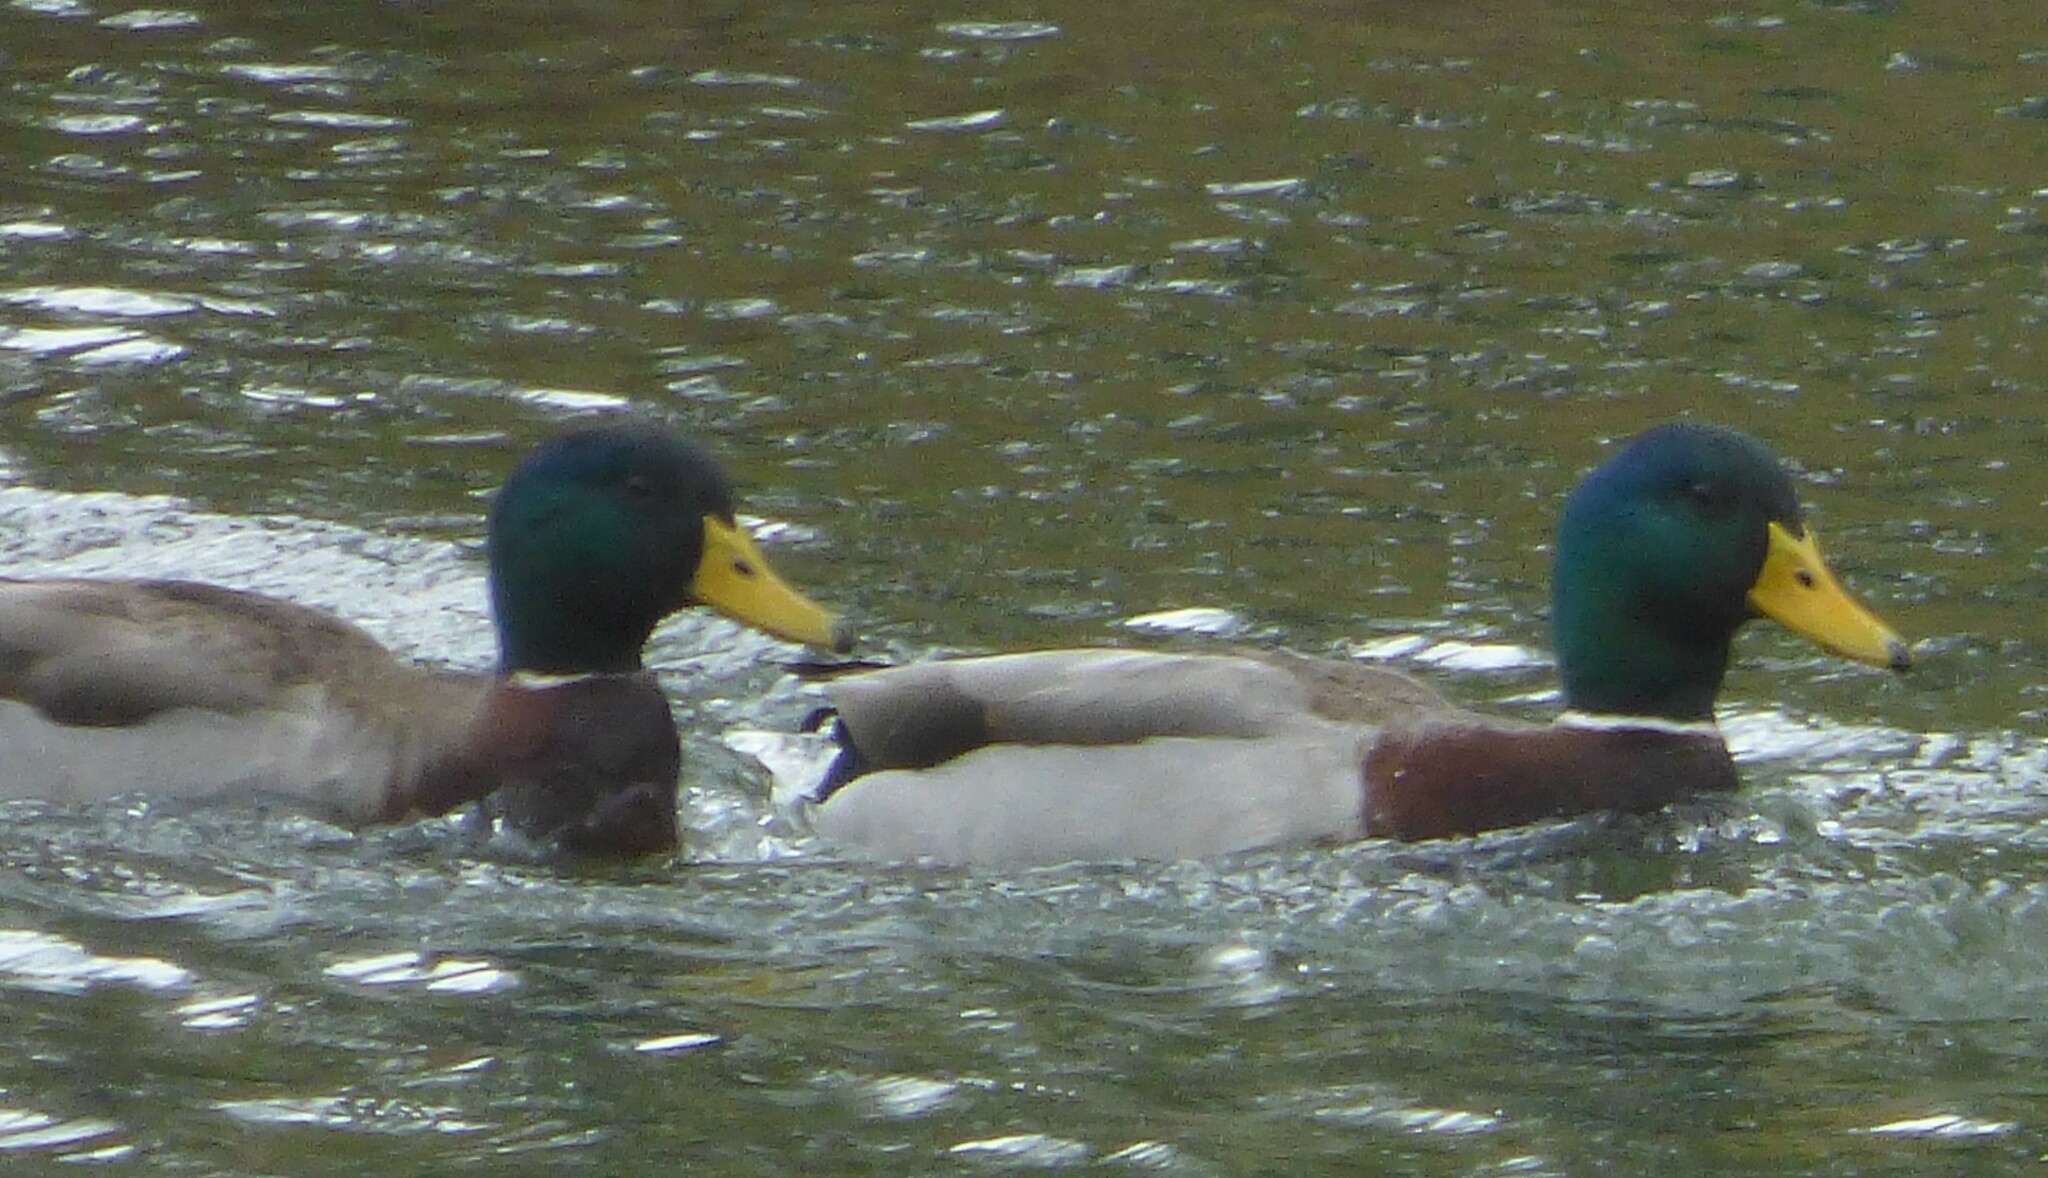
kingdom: Animalia
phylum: Chordata
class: Aves
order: Anseriformes
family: Anatidae
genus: Anas
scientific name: Anas platyrhynchos
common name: Mallard
